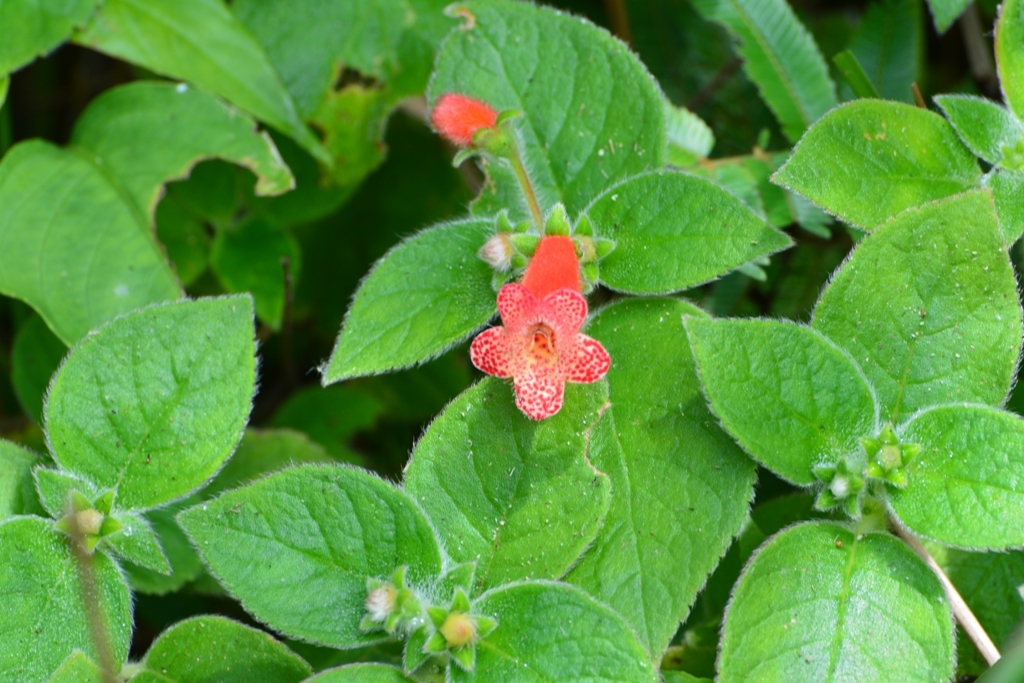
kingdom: Plantae
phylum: Tracheophyta
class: Magnoliopsida
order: Lamiales
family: Gesneriaceae
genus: Kohleria
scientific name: Kohleria rugata
